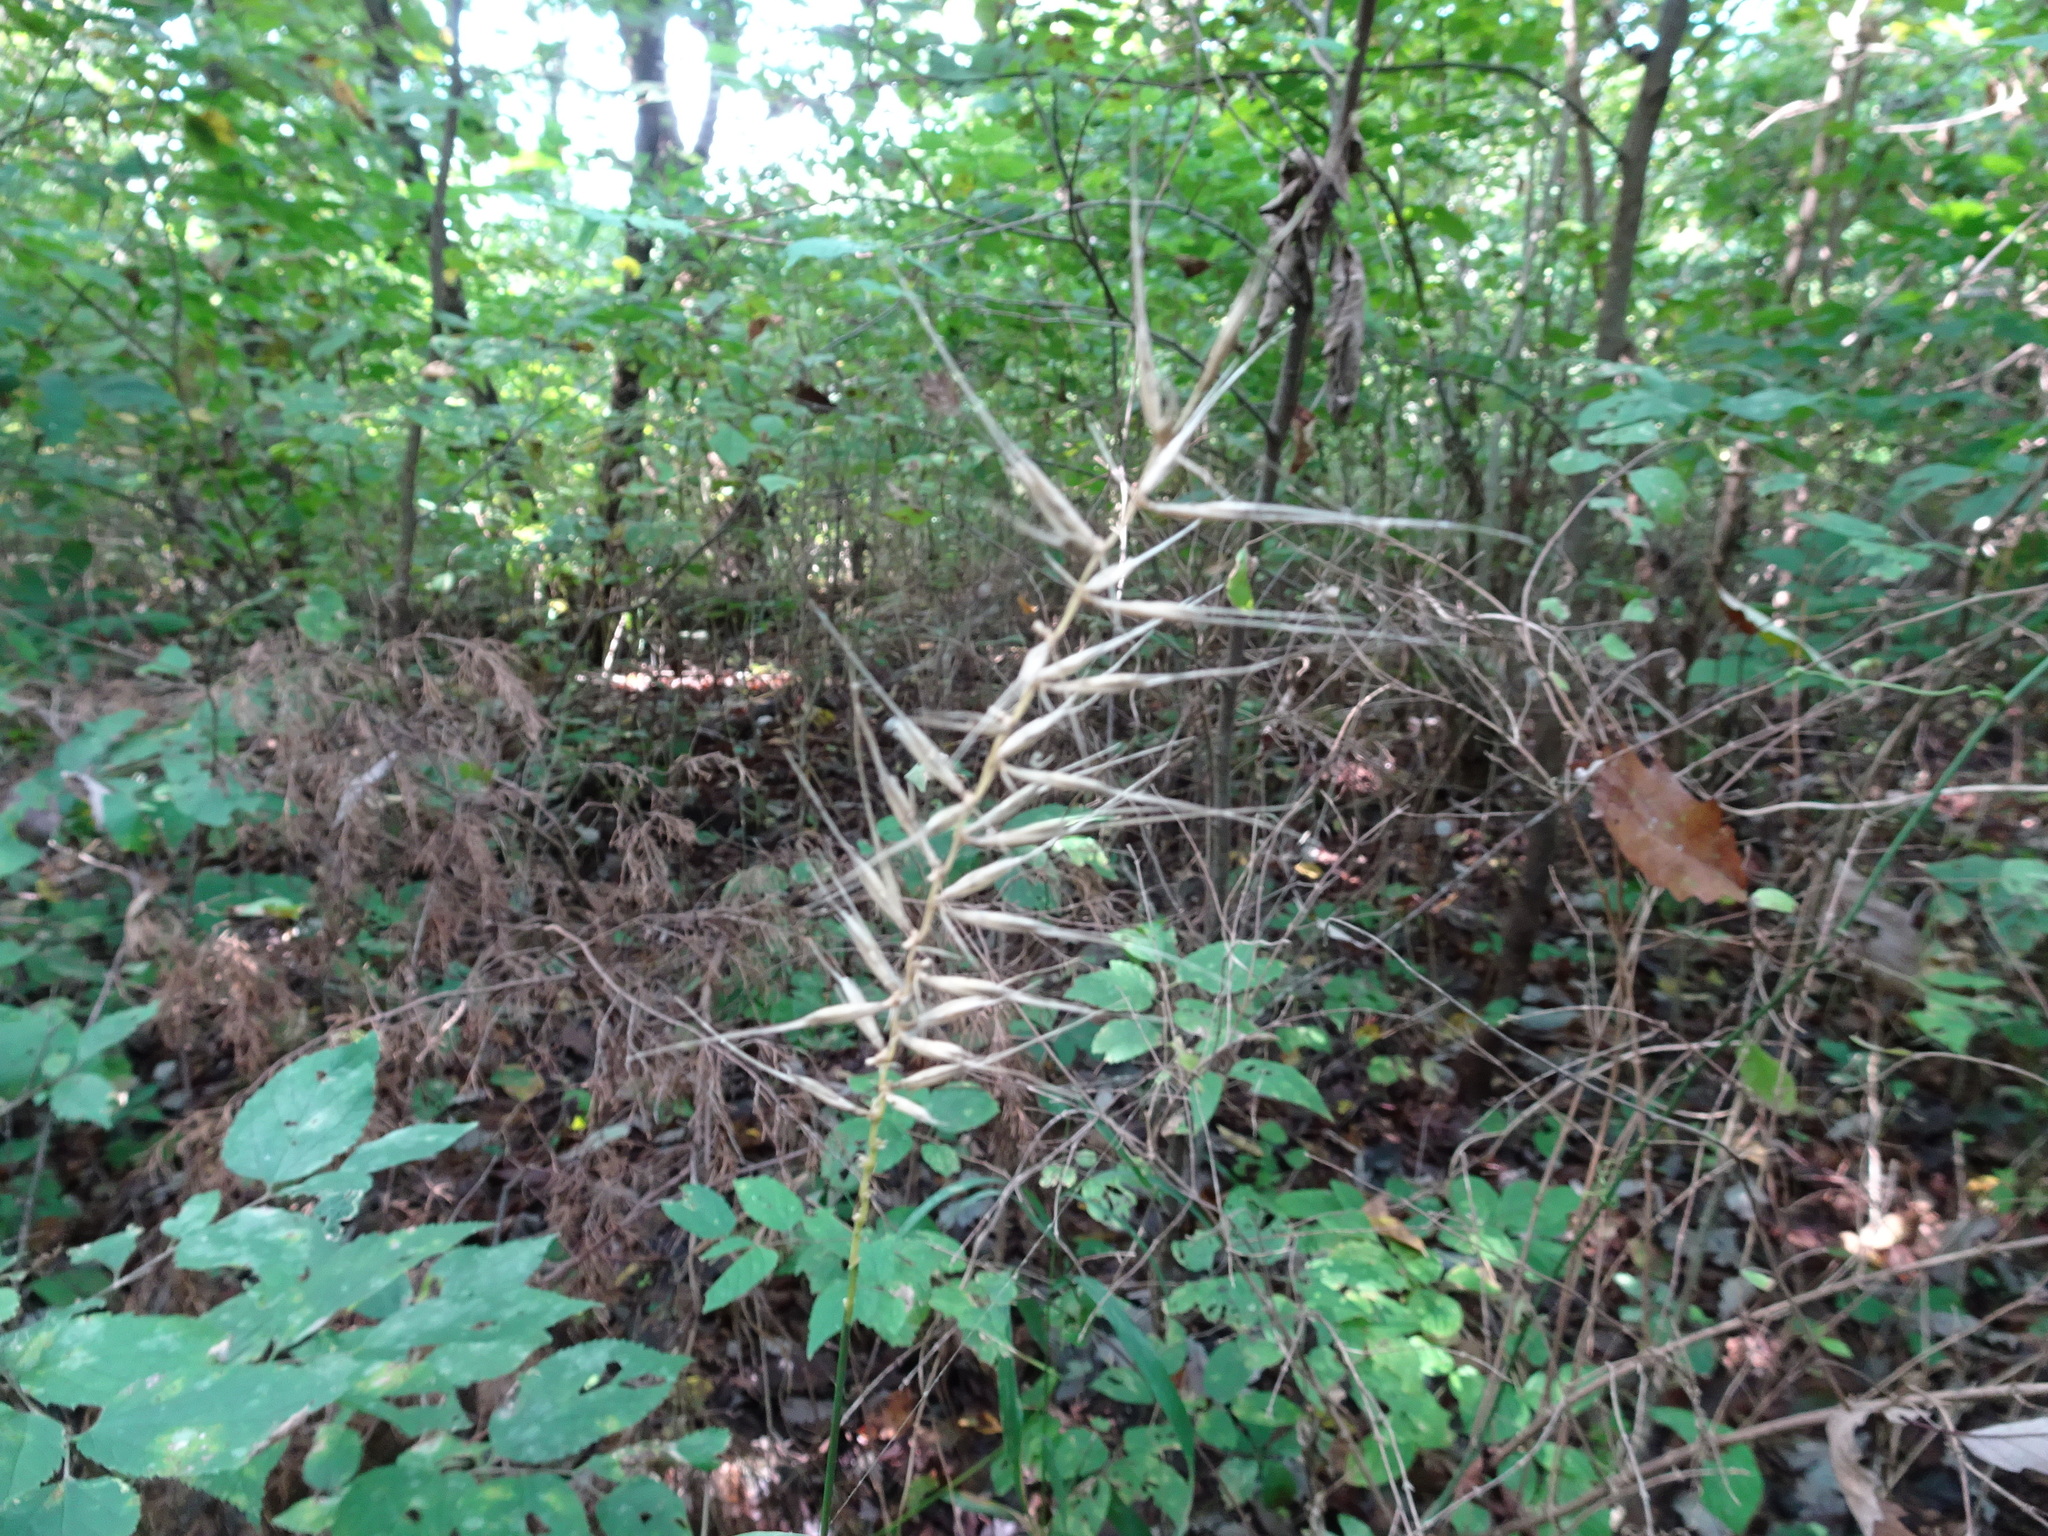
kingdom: Plantae
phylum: Tracheophyta
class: Liliopsida
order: Poales
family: Poaceae
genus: Elymus
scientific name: Elymus hystrix
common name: Bottlebrush grass
